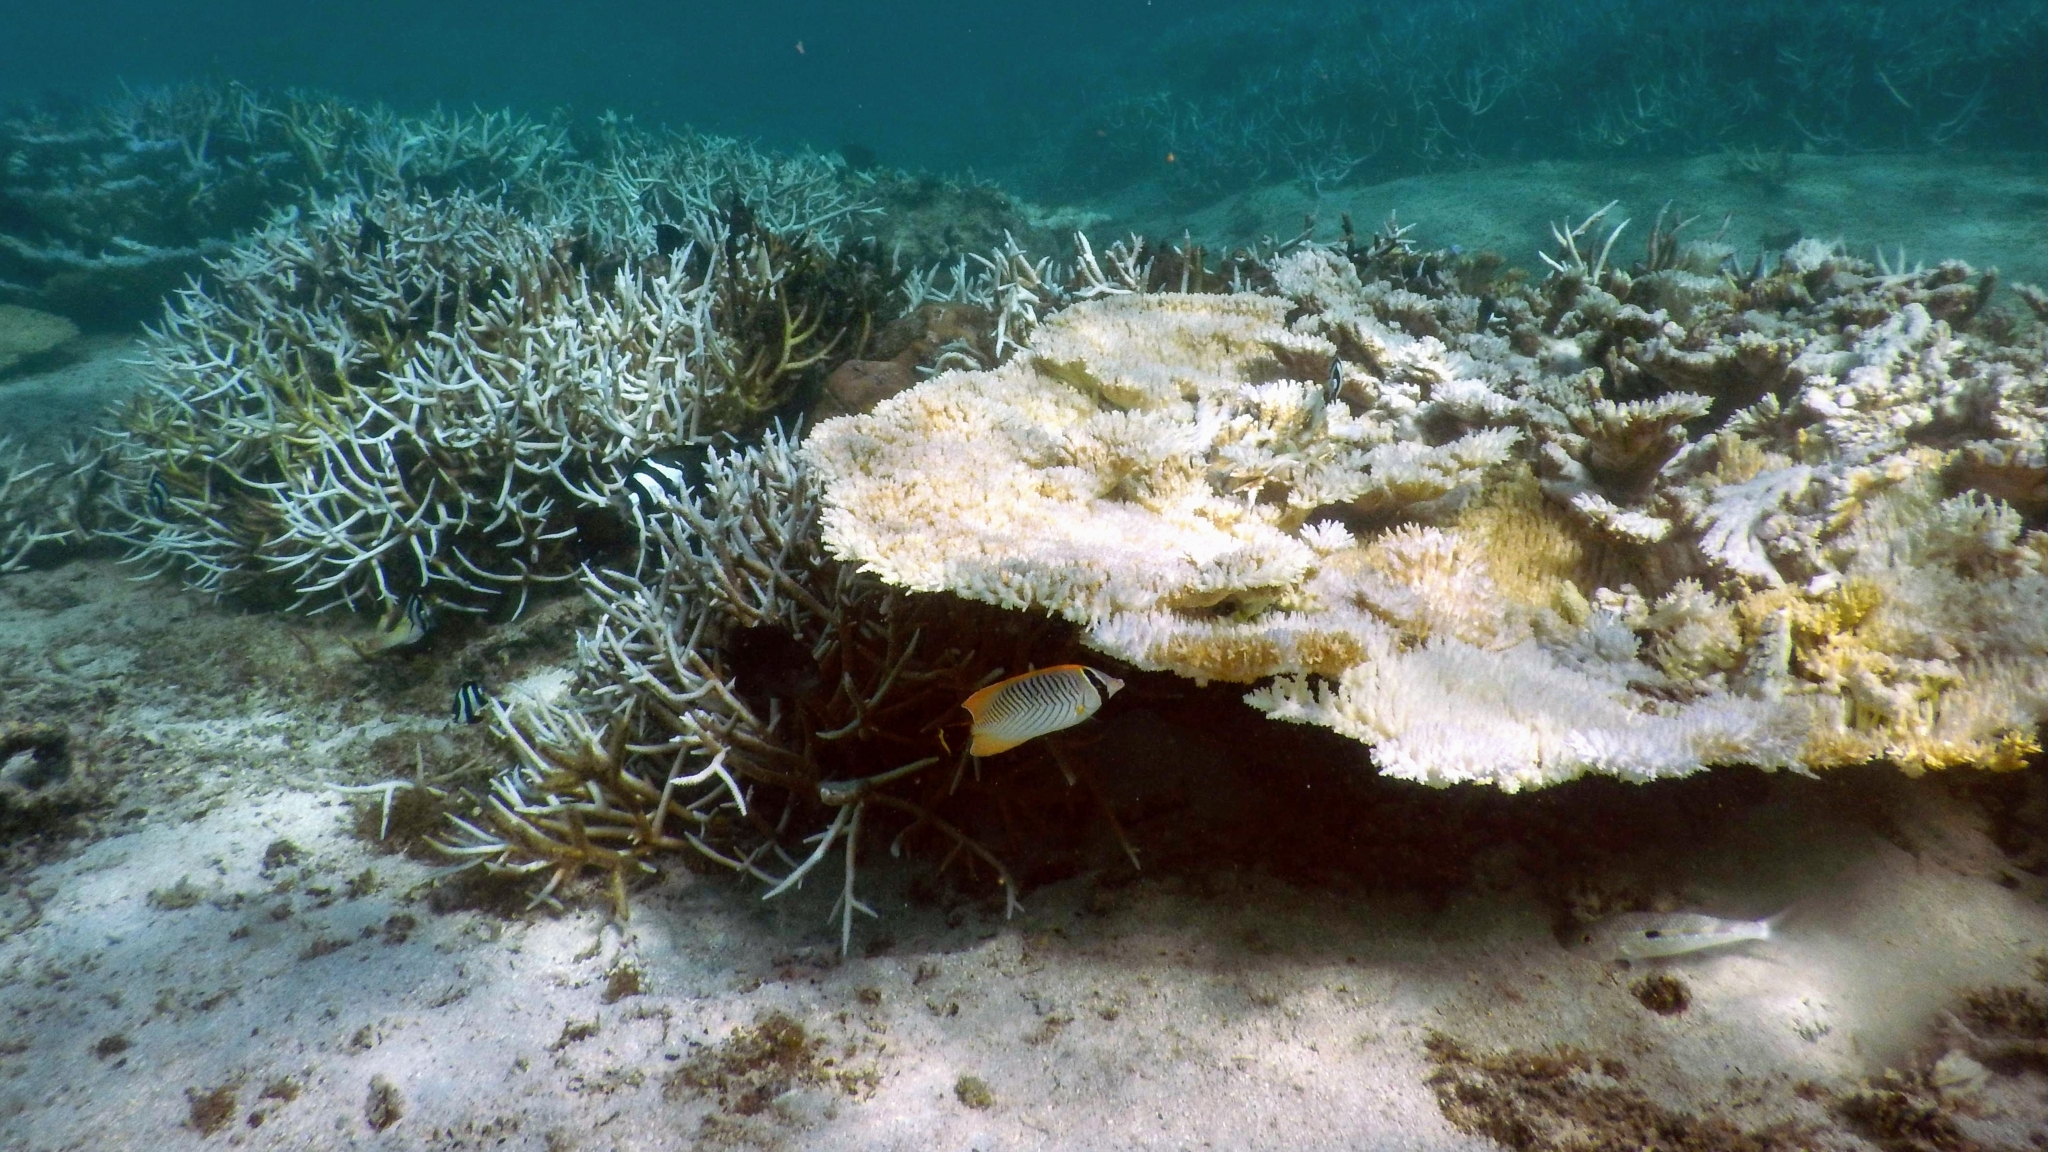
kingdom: Animalia
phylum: Chordata
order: Perciformes
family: Chaetodontidae
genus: Chaetodon
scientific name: Chaetodon trifascialis
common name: Chevroned butterflyfish
